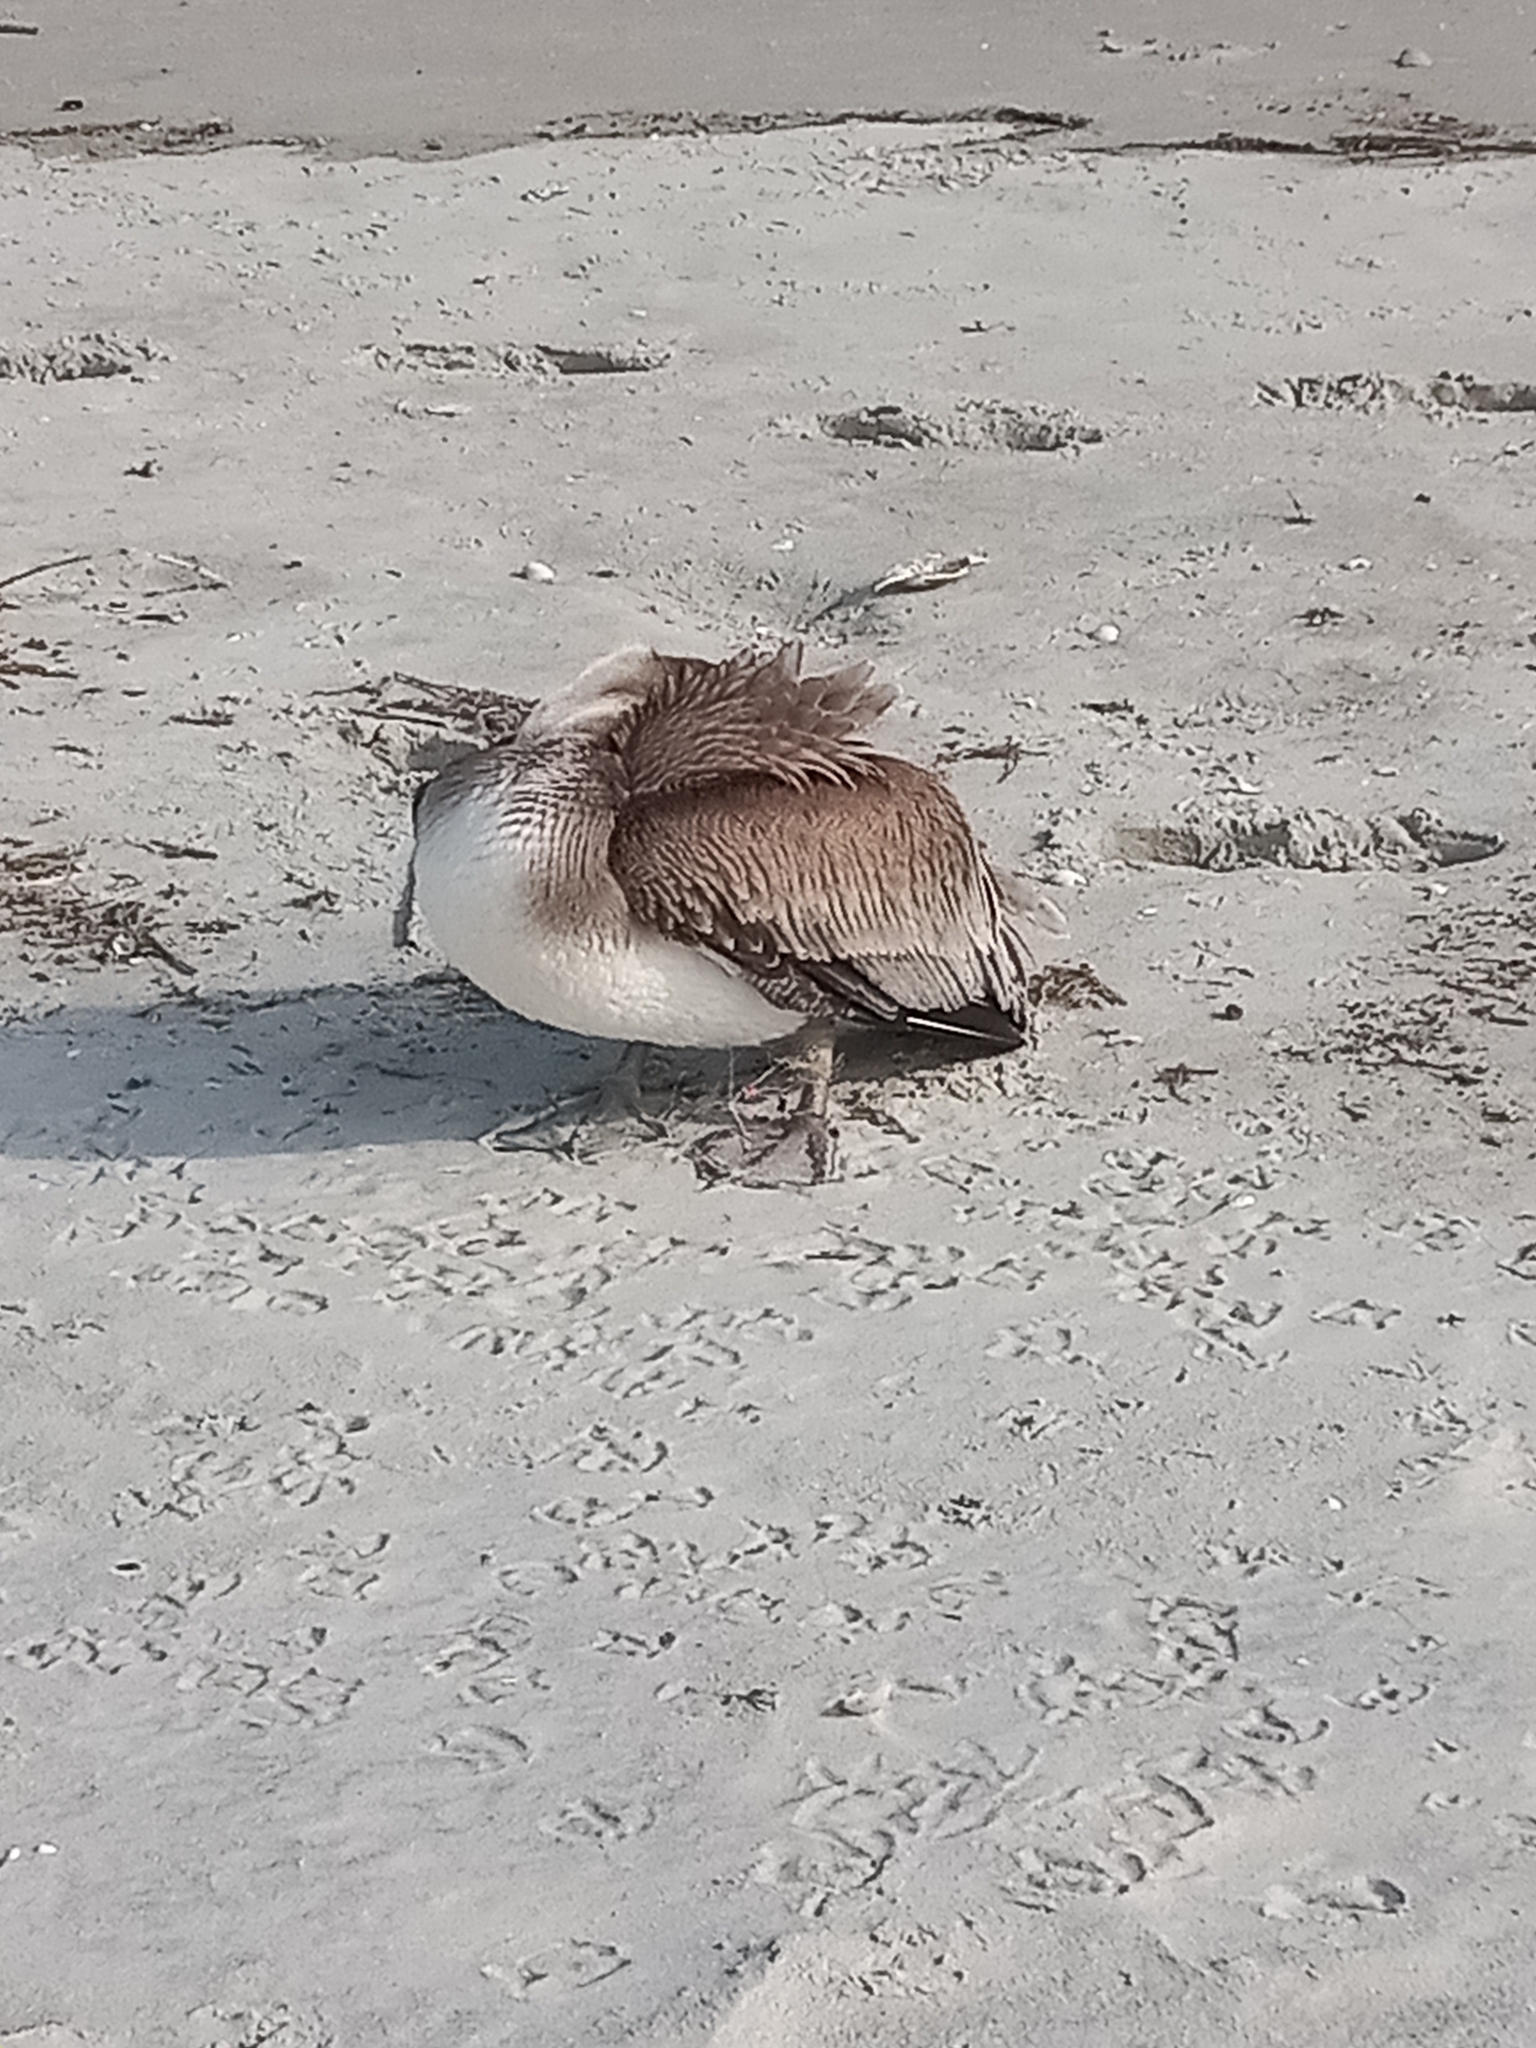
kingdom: Animalia
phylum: Chordata
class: Aves
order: Pelecaniformes
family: Pelecanidae
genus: Pelecanus
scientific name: Pelecanus occidentalis
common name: Brown pelican
